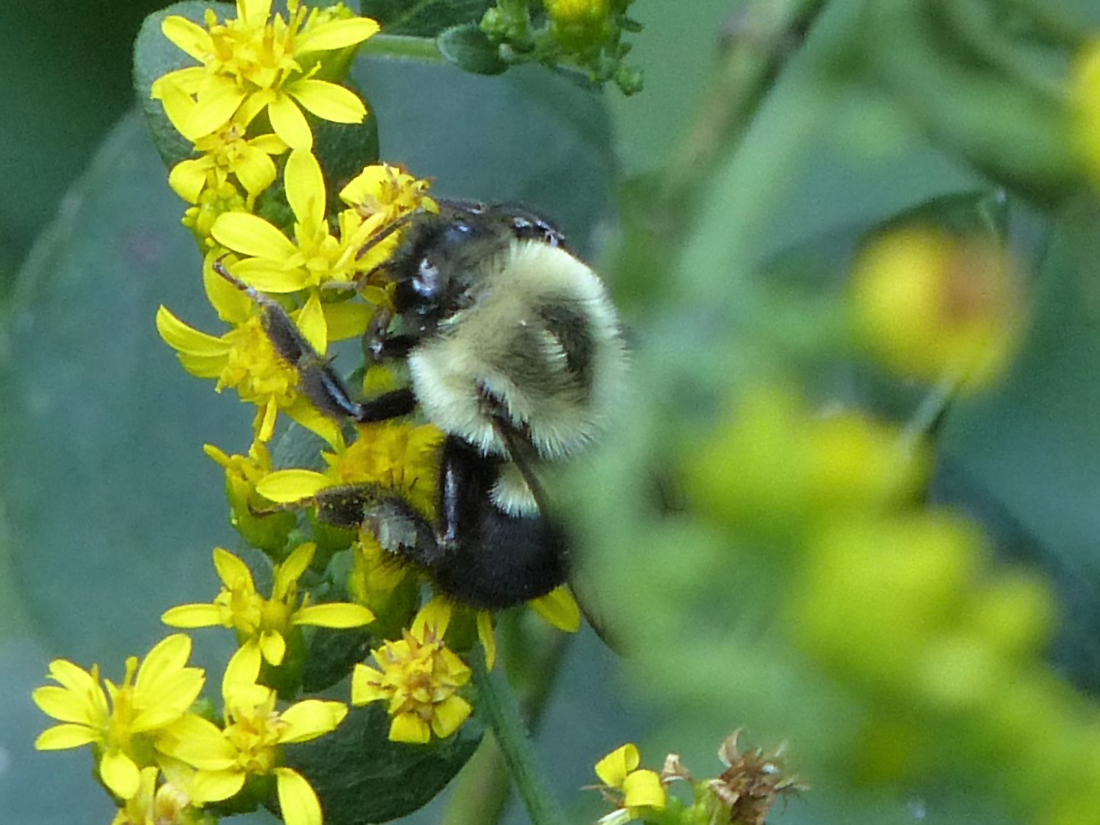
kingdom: Animalia
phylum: Arthropoda
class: Insecta
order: Hymenoptera
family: Apidae
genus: Bombus
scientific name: Bombus impatiens
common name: Common eastern bumble bee
